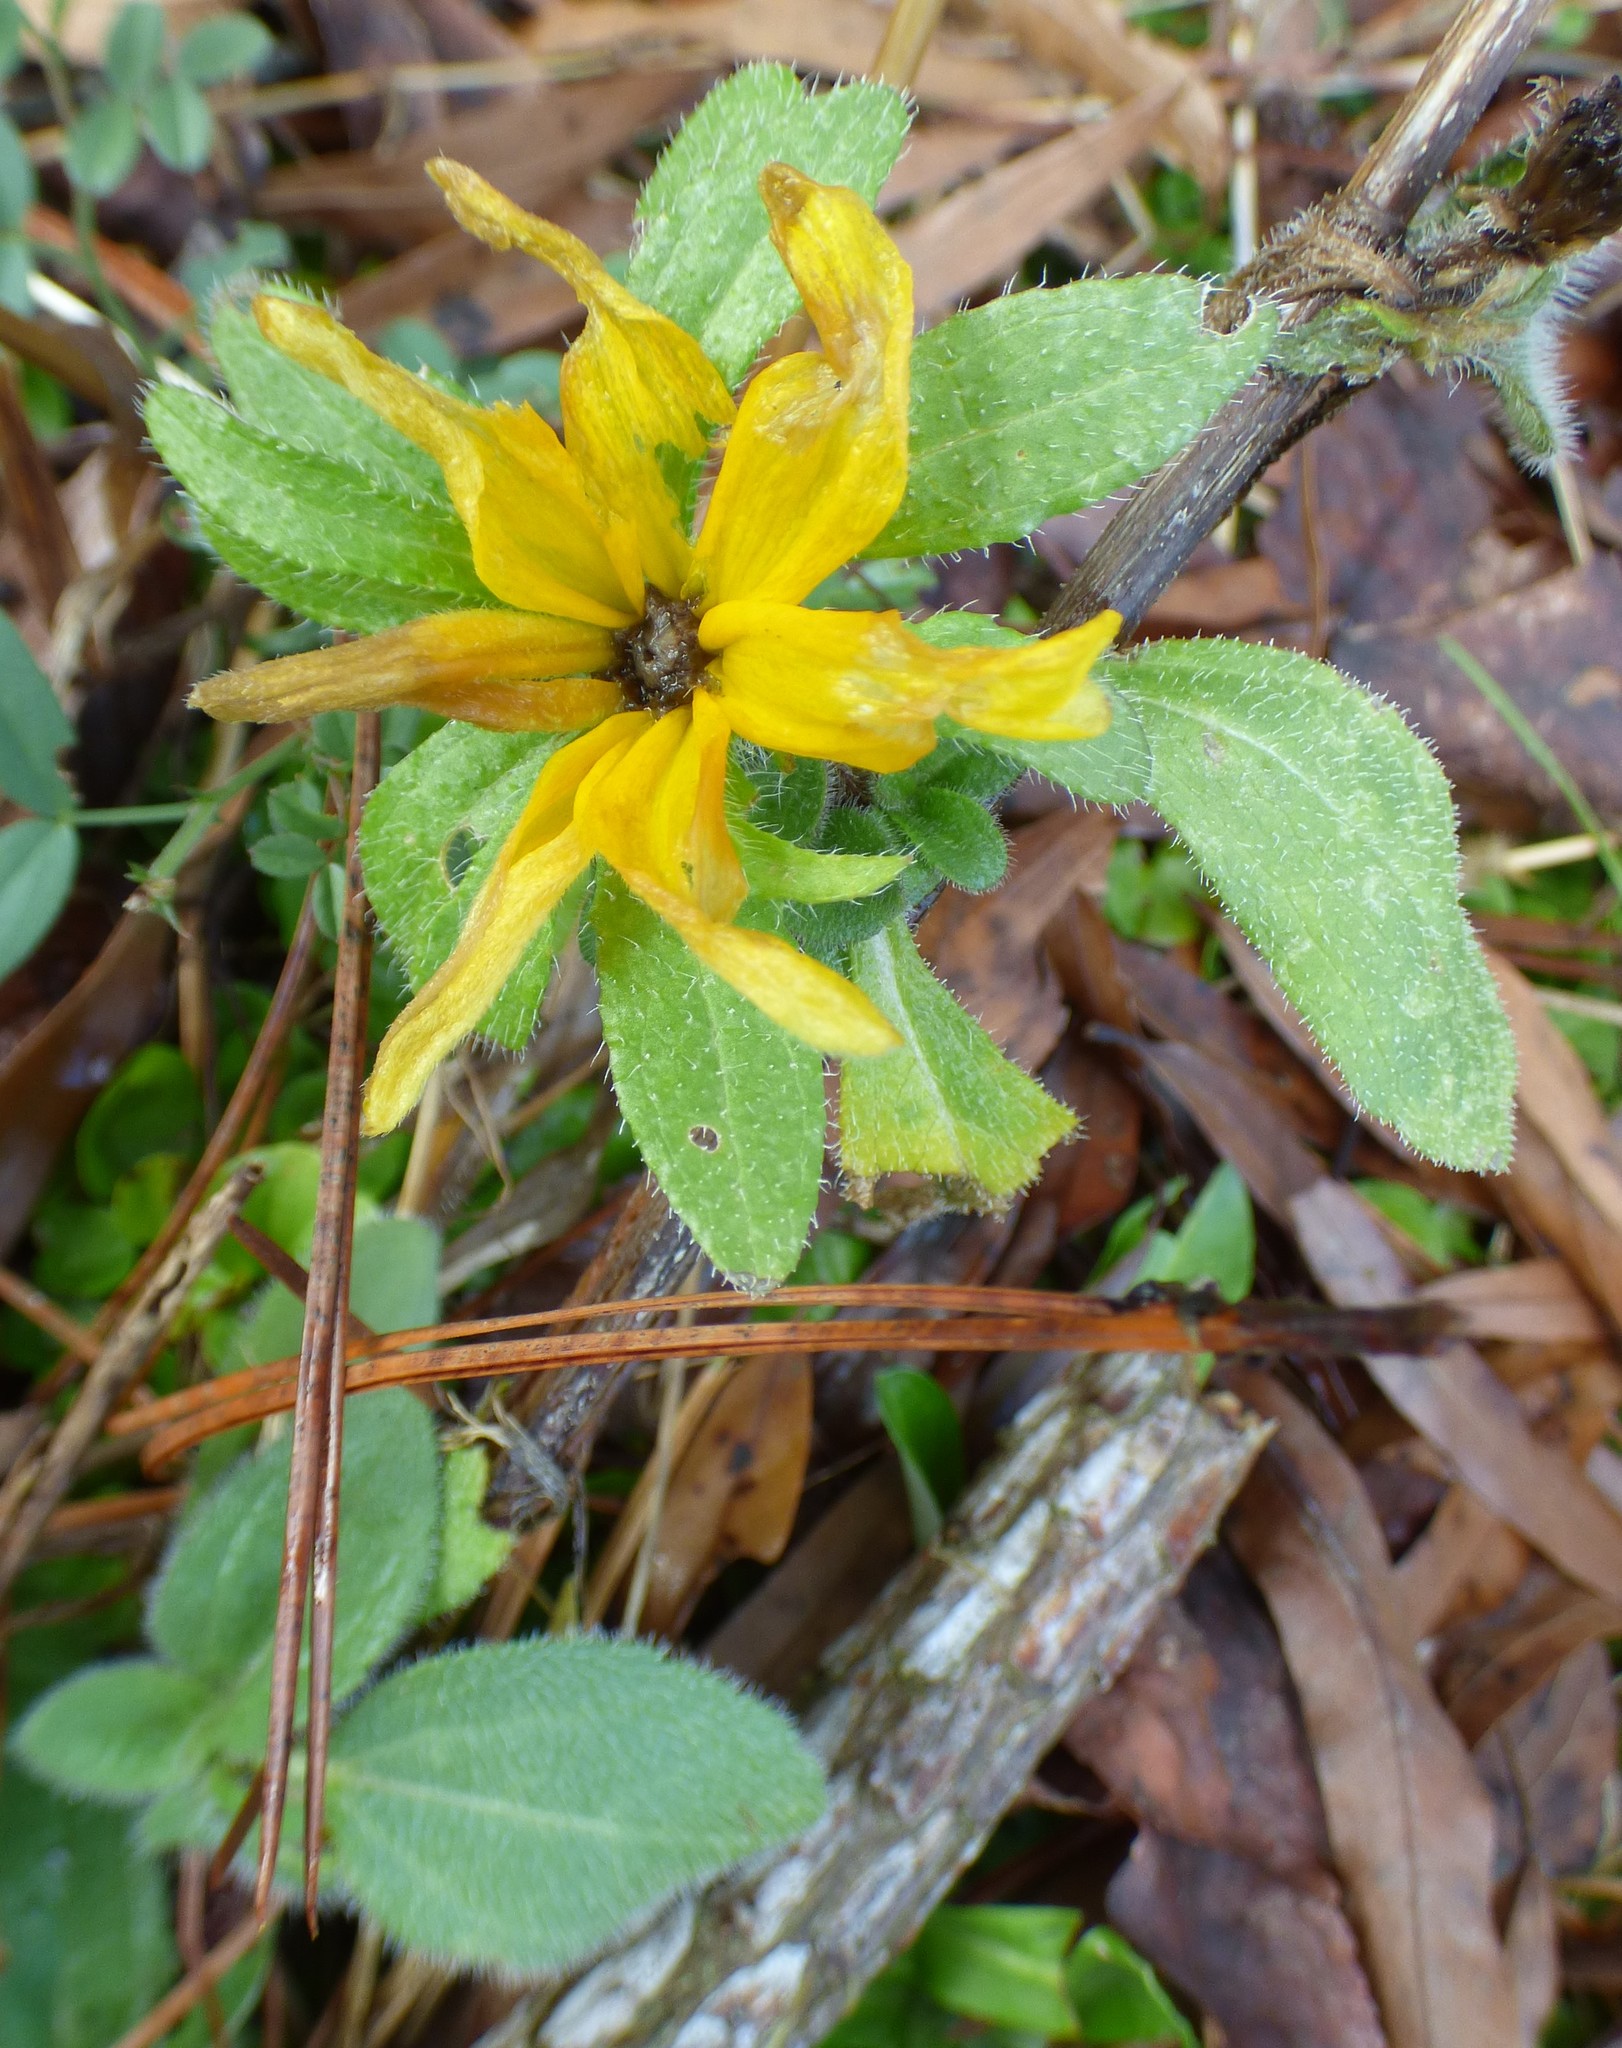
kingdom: Plantae
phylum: Tracheophyta
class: Magnoliopsida
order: Asterales
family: Asteraceae
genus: Rudbeckia
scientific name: Rudbeckia hirta
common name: Black-eyed-susan
